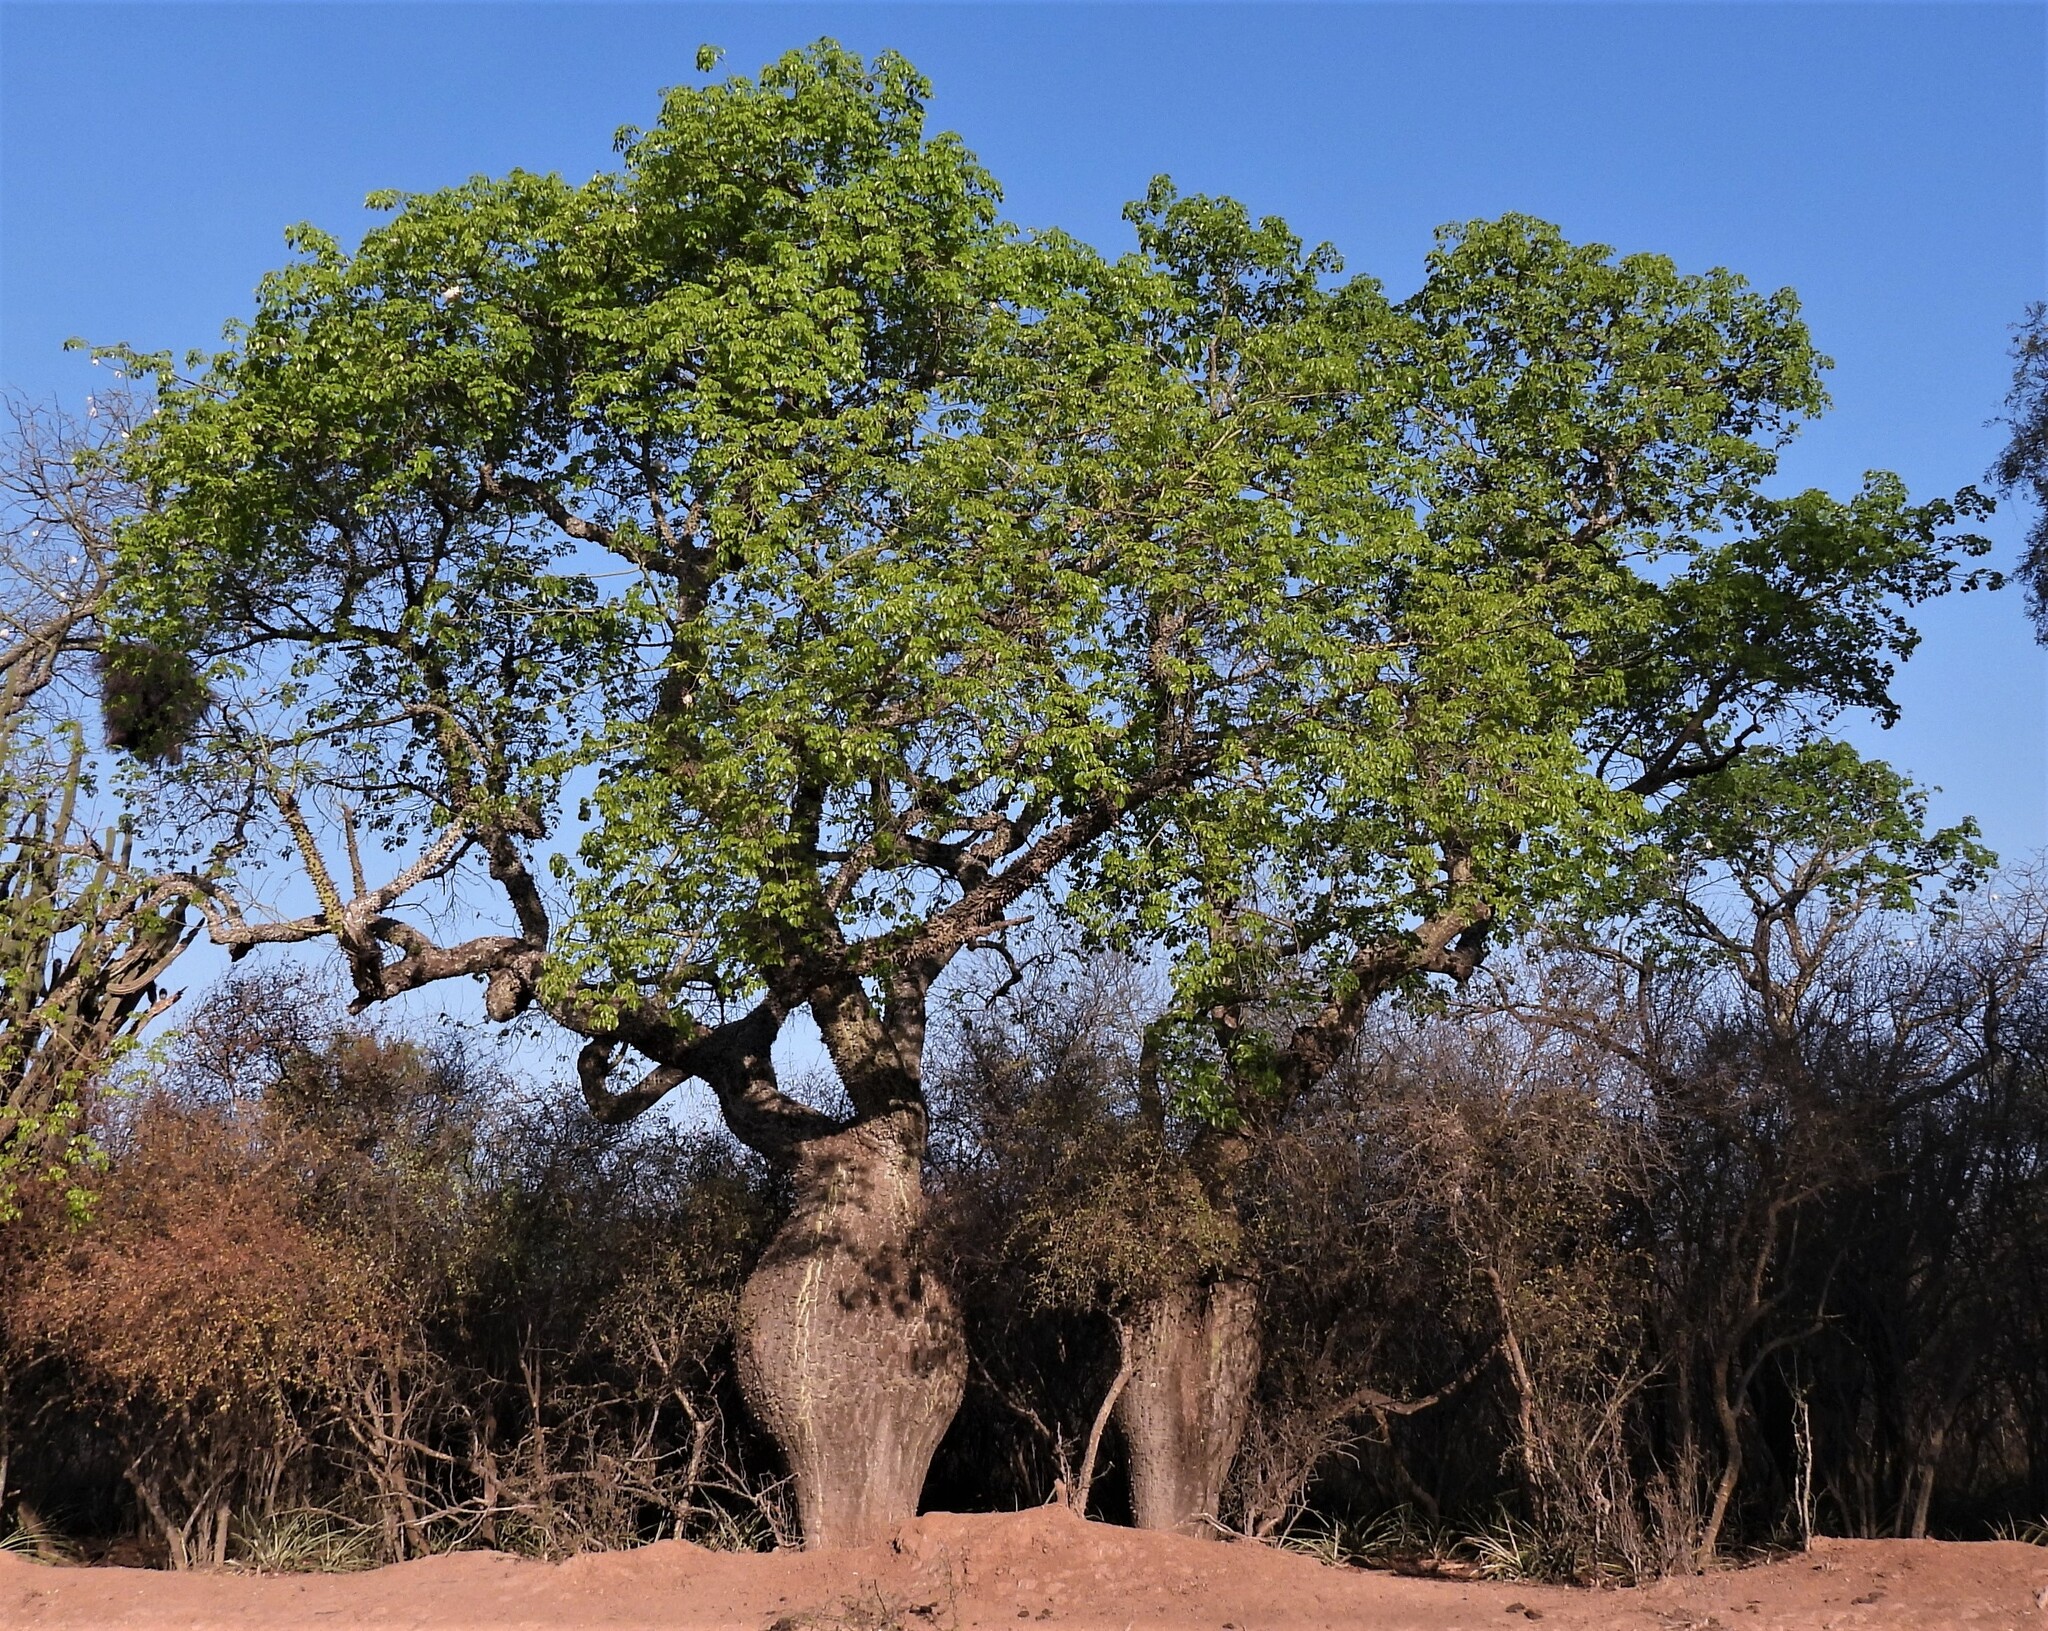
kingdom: Plantae
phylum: Tracheophyta
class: Magnoliopsida
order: Malvales
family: Malvaceae
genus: Ceiba
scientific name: Ceiba chodatii
